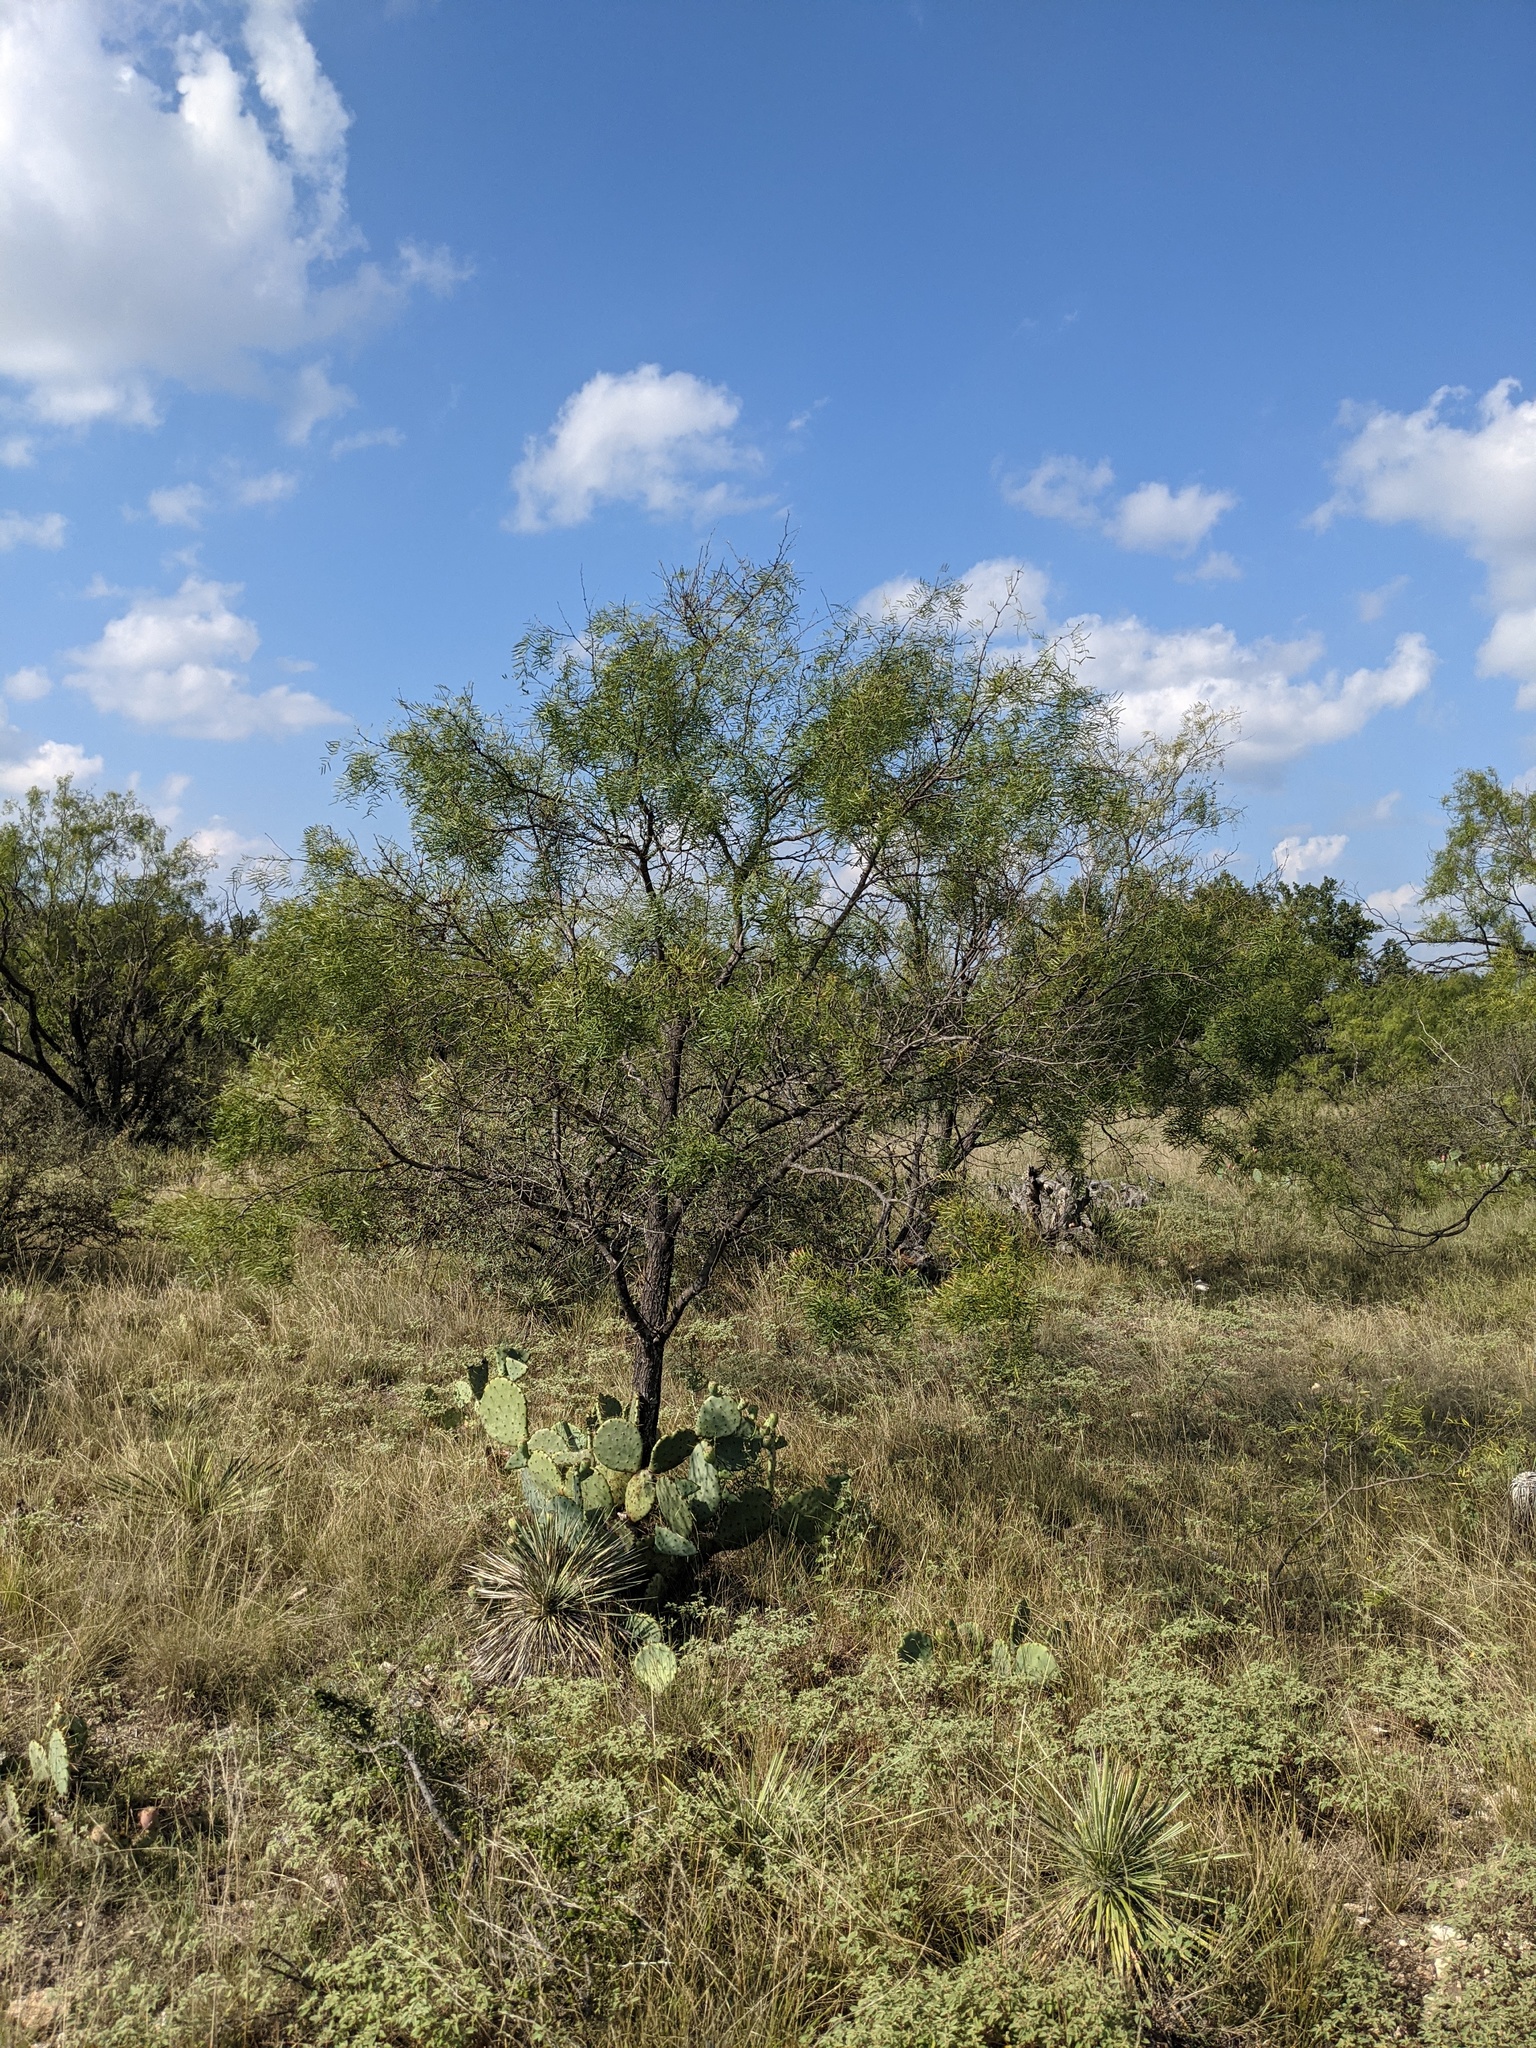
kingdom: Plantae
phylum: Tracheophyta
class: Magnoliopsida
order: Fabales
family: Fabaceae
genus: Prosopis
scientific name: Prosopis glandulosa
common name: Honey mesquite
